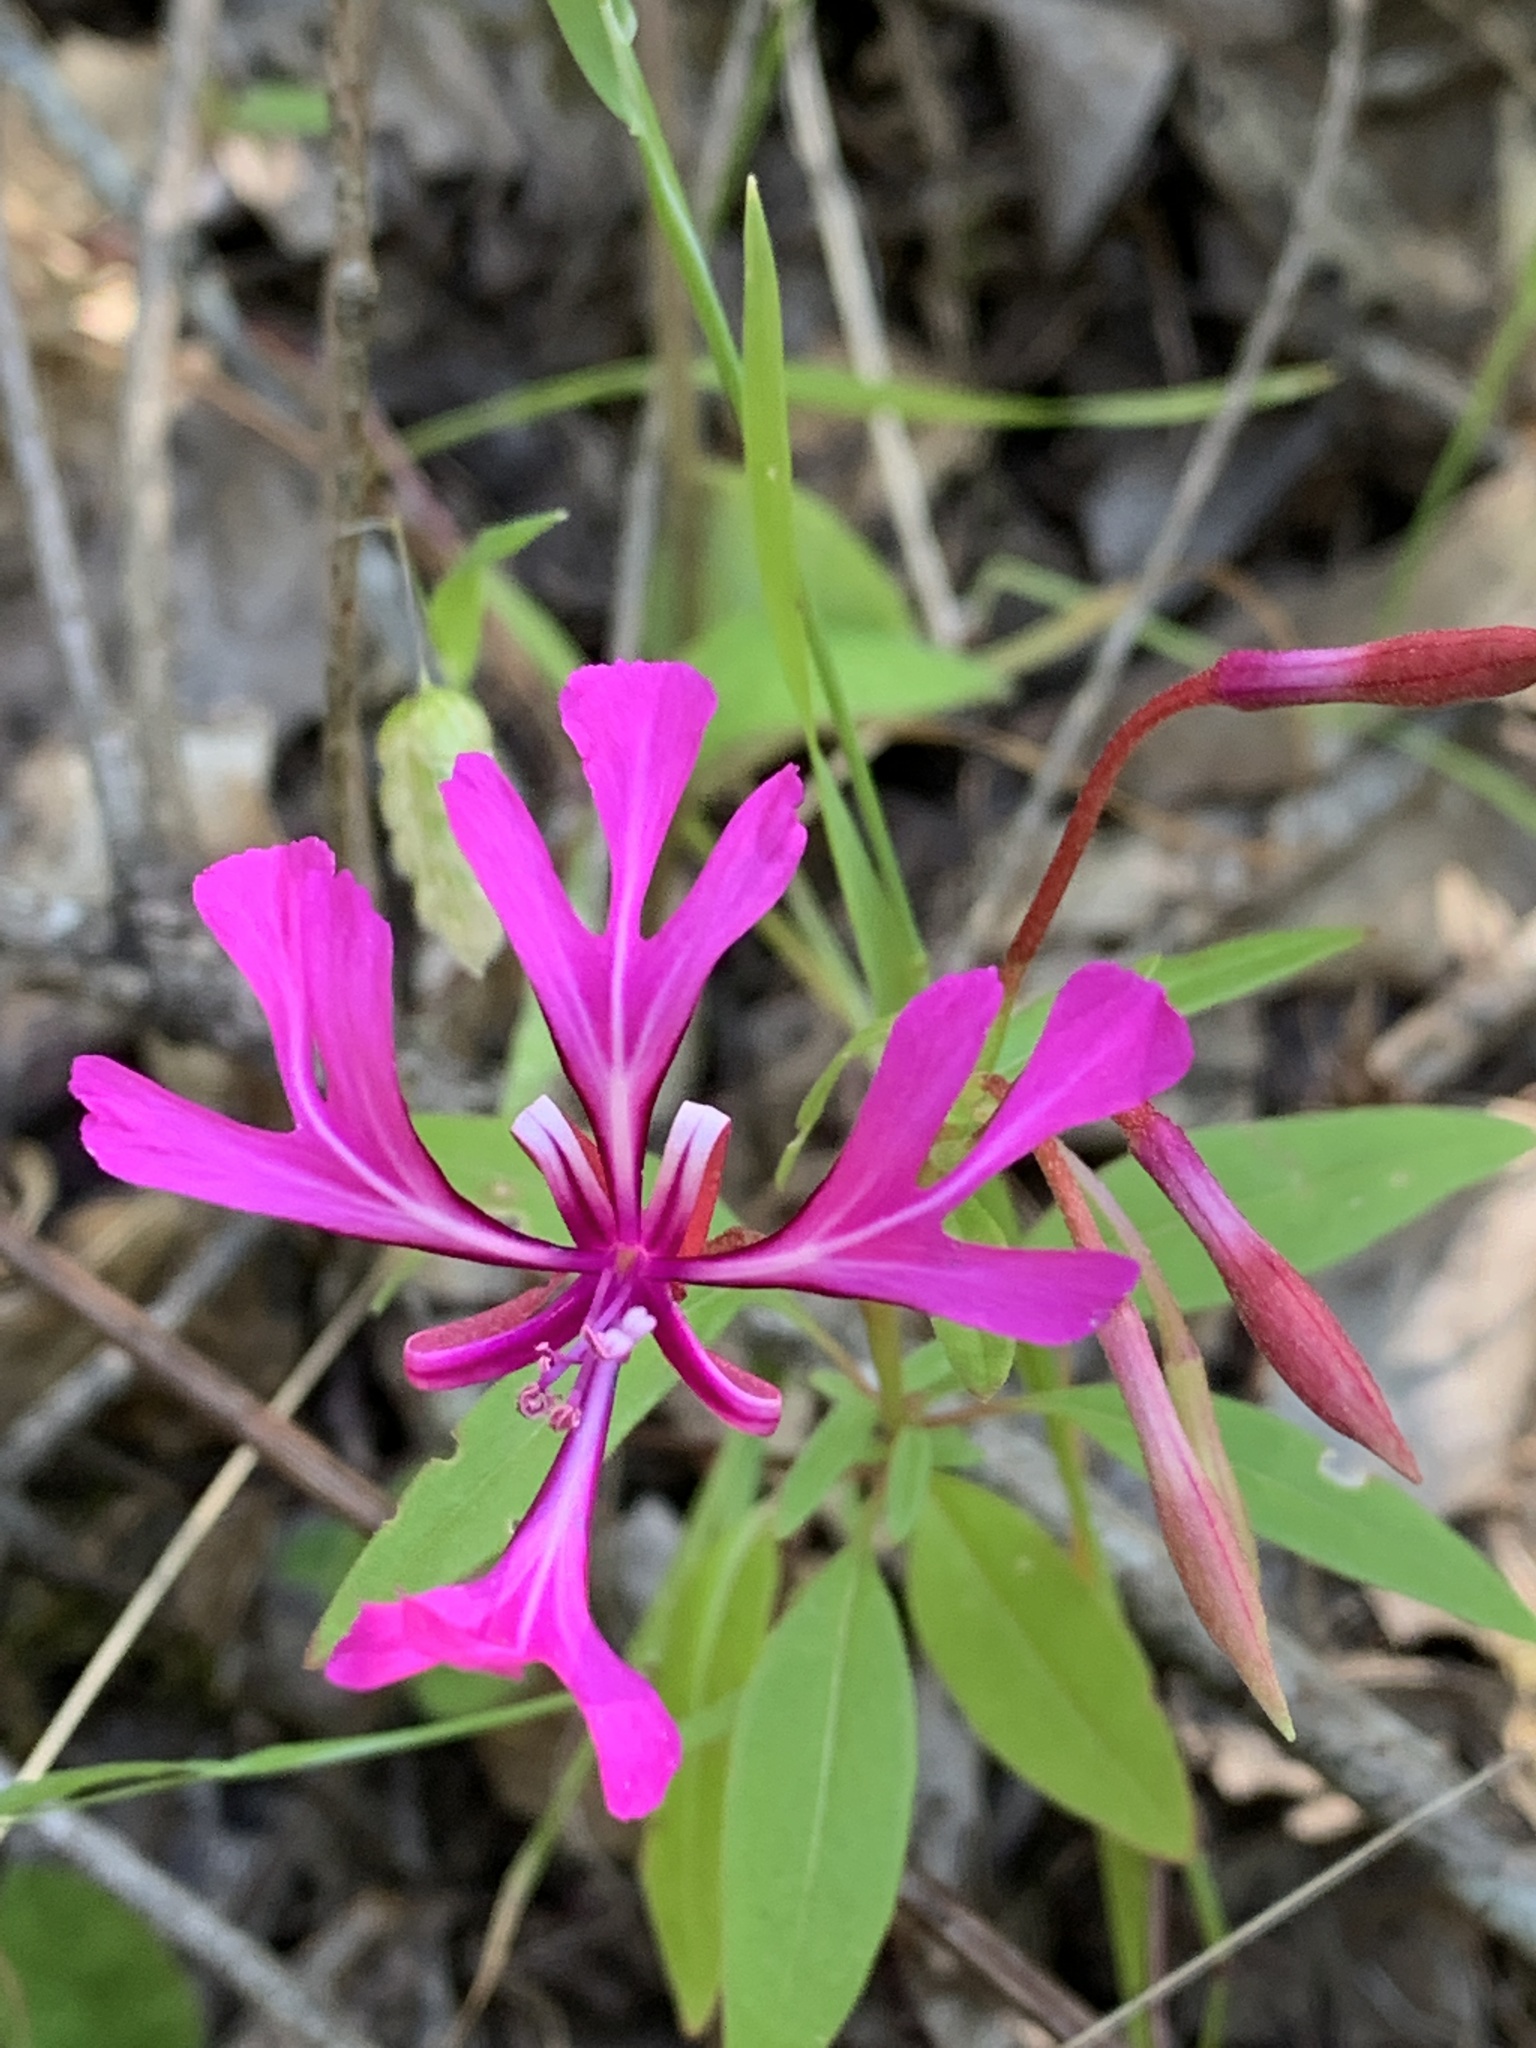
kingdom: Plantae
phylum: Tracheophyta
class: Magnoliopsida
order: Myrtales
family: Onagraceae
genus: Clarkia
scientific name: Clarkia concinna
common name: Red-ribbons
